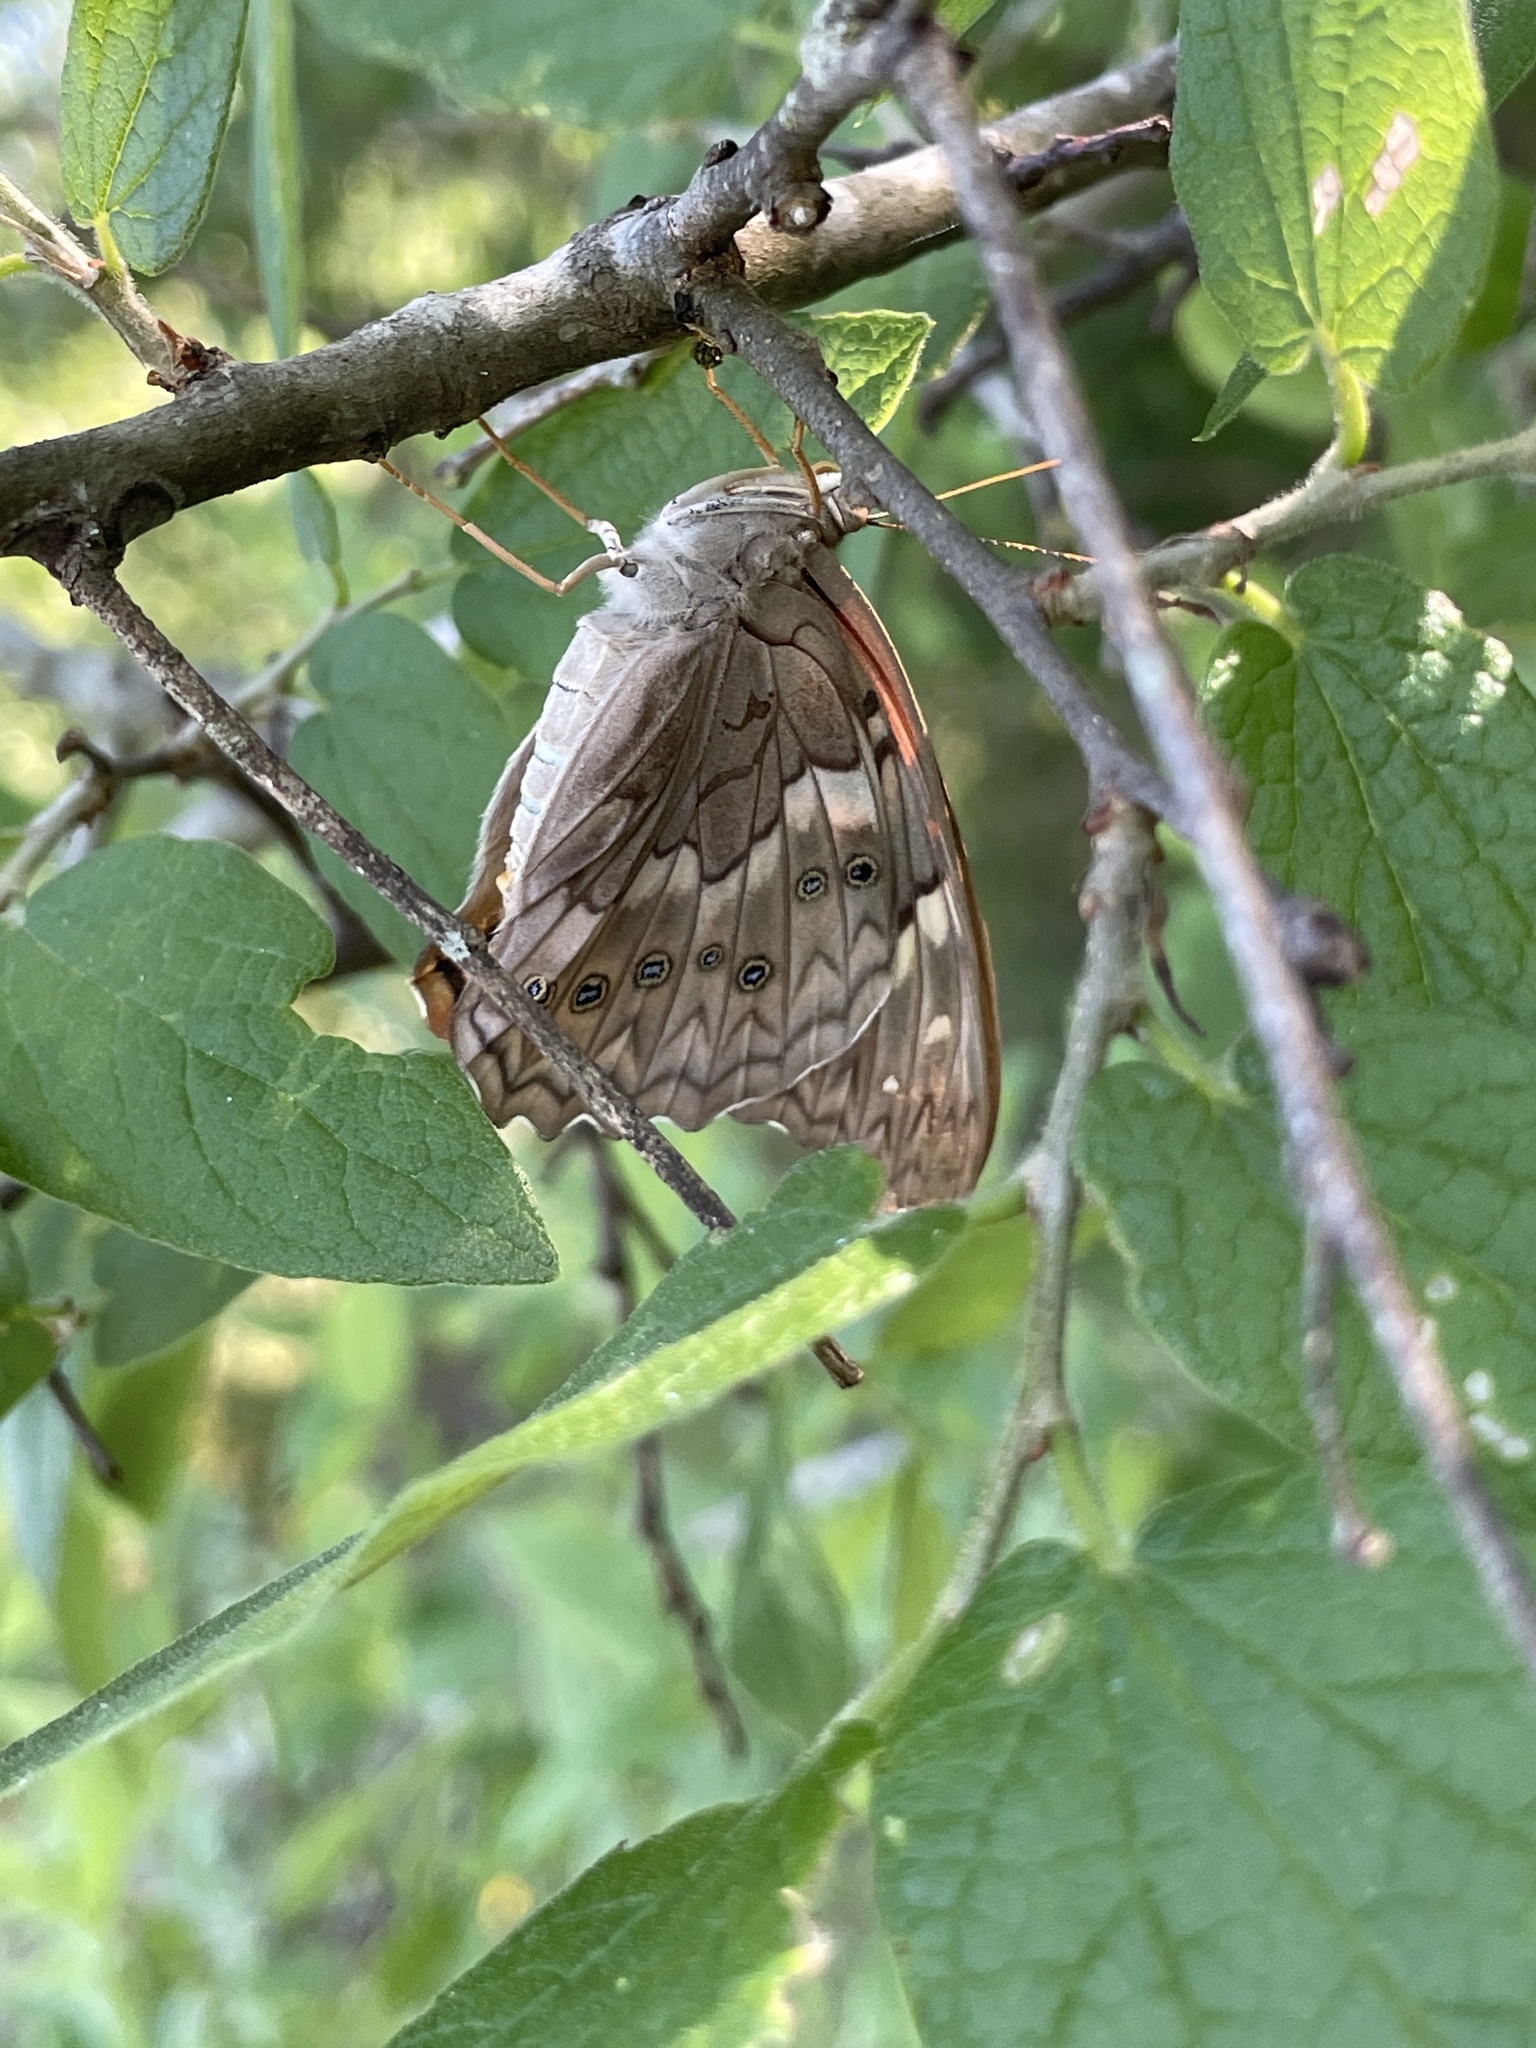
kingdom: Animalia
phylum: Arthropoda
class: Insecta
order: Lepidoptera
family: Nymphalidae
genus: Asterocampa
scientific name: Asterocampa clyton
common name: Tawny emperor
